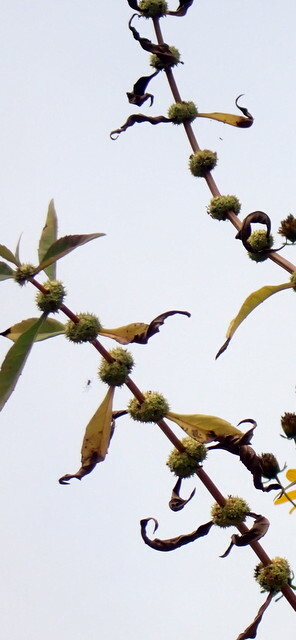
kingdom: Plantae
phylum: Tracheophyta
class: Magnoliopsida
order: Lamiales
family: Lamiaceae
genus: Lycopus
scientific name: Lycopus rubellus
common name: Stalked bugleweed
